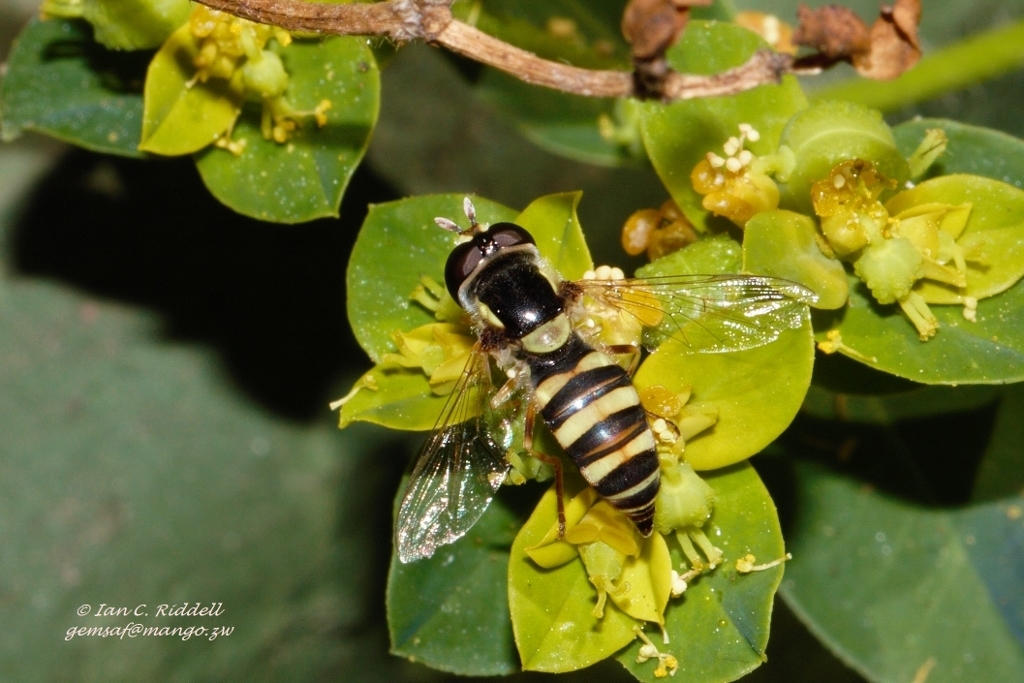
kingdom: Animalia
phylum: Arthropoda
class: Insecta
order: Diptera
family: Syrphidae
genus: Ischiodon
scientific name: Ischiodon aegyptius
